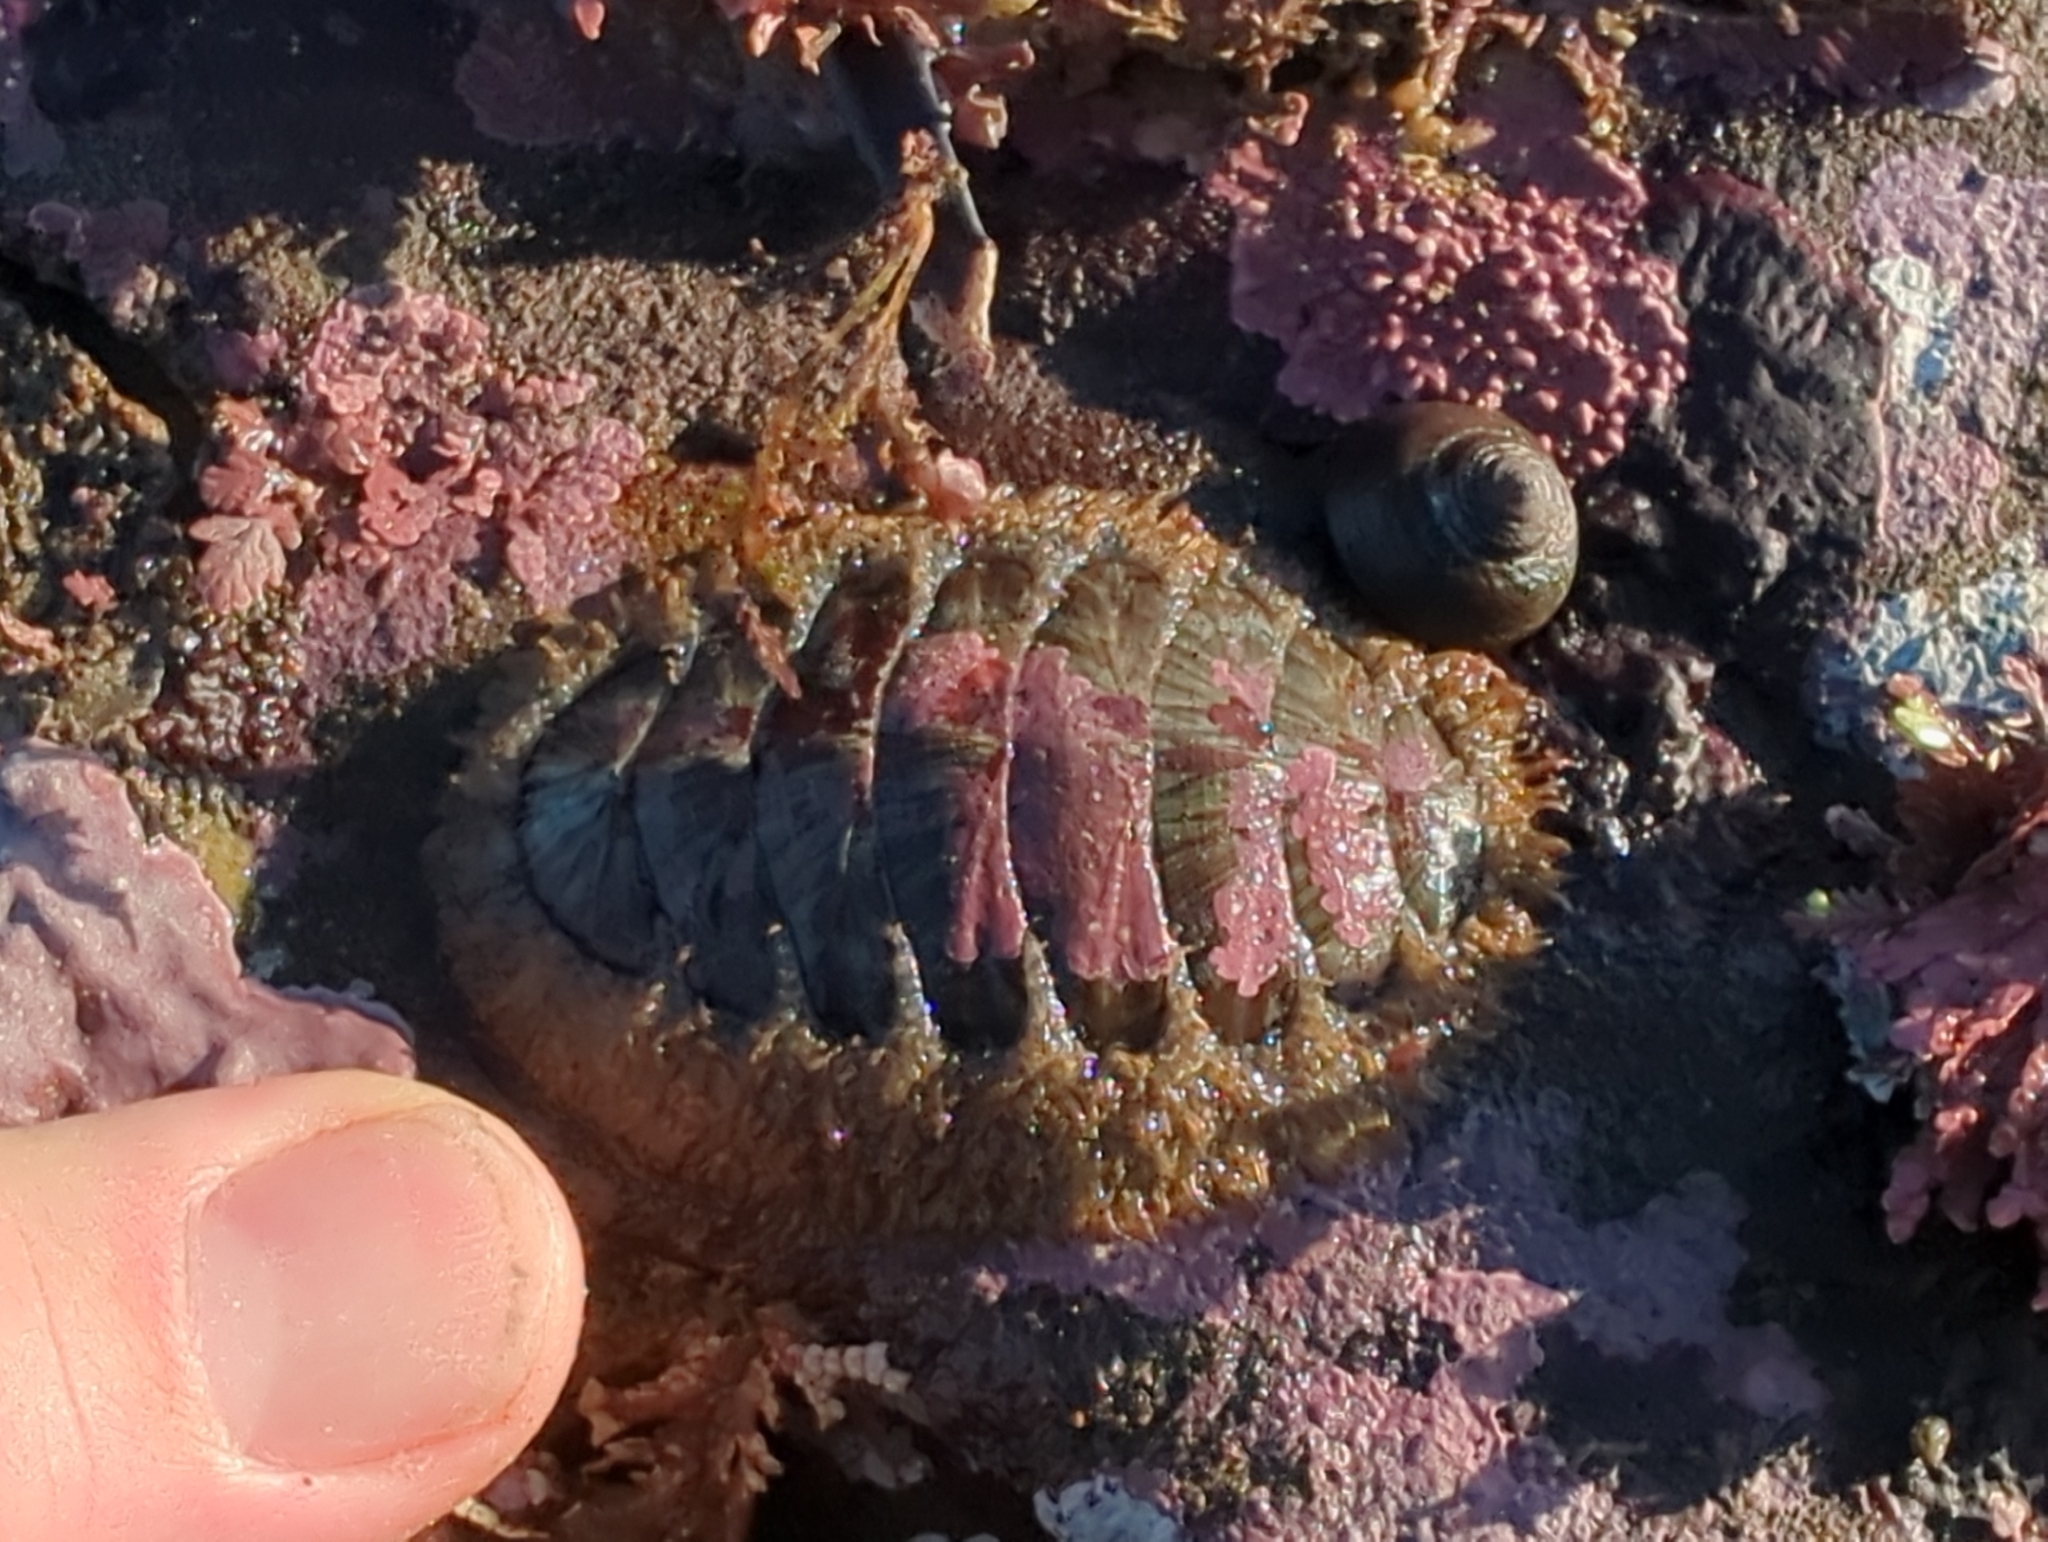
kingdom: Animalia
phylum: Mollusca
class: Polyplacophora
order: Chitonida
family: Mopaliidae
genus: Mopalia
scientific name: Mopalia lignosa
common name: Woody chiton
